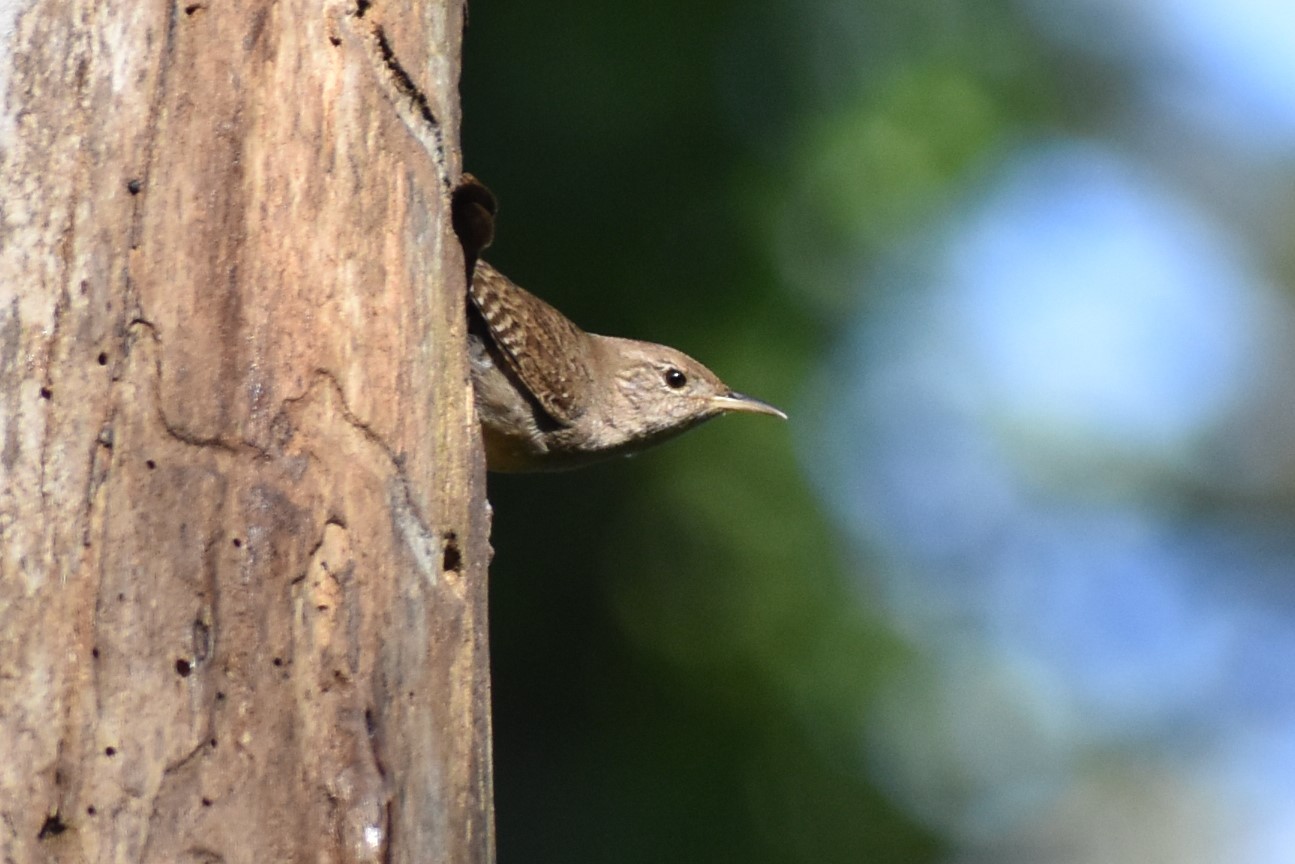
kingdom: Animalia
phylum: Chordata
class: Aves
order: Passeriformes
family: Troglodytidae
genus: Troglodytes
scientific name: Troglodytes aedon
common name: House wren
